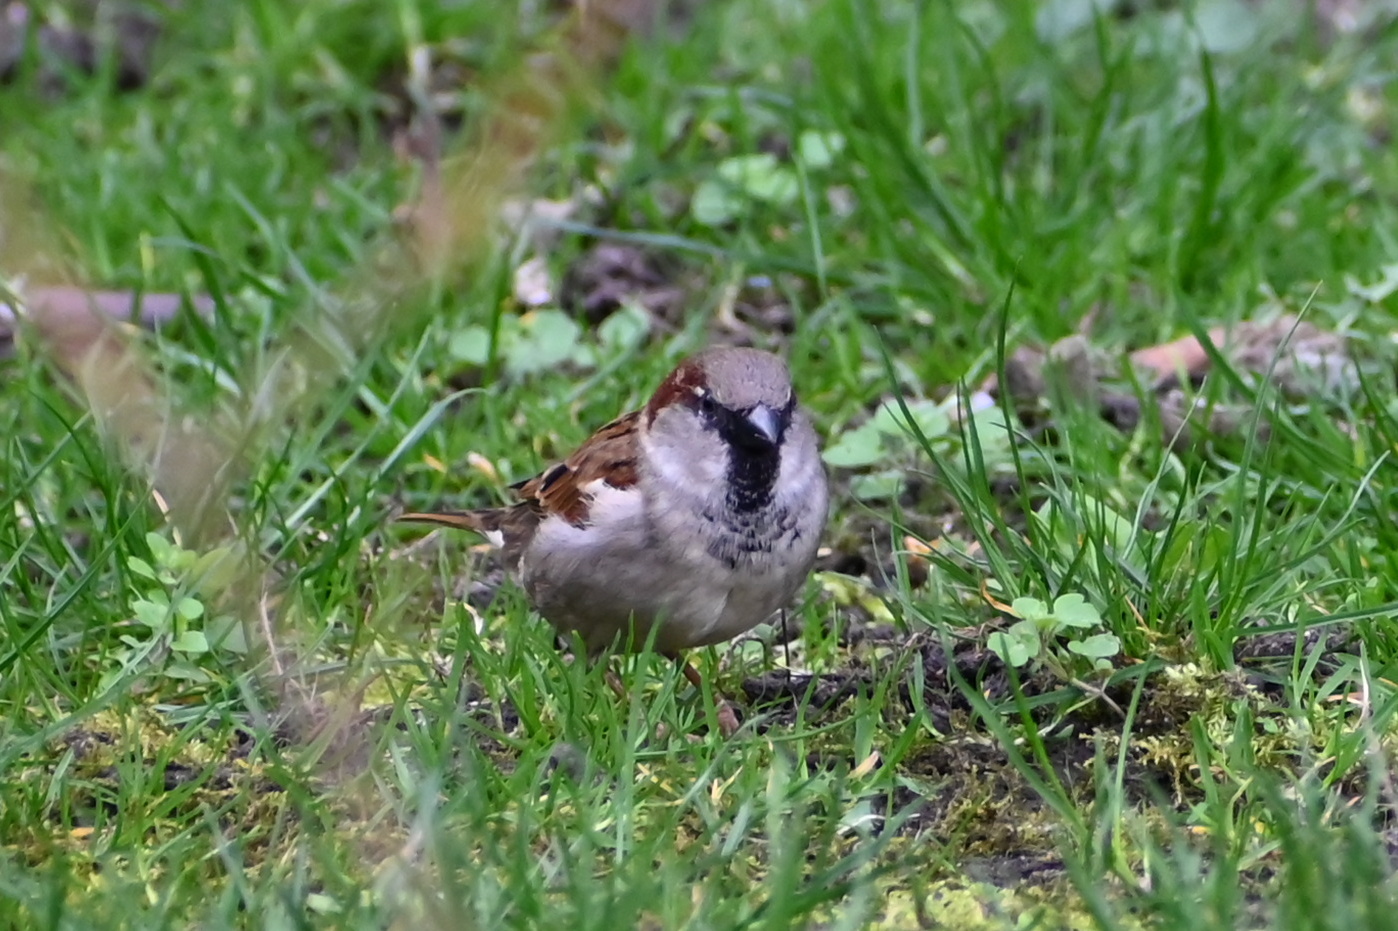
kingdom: Animalia
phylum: Chordata
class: Aves
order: Passeriformes
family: Passeridae
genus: Passer
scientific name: Passer domesticus
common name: House sparrow
